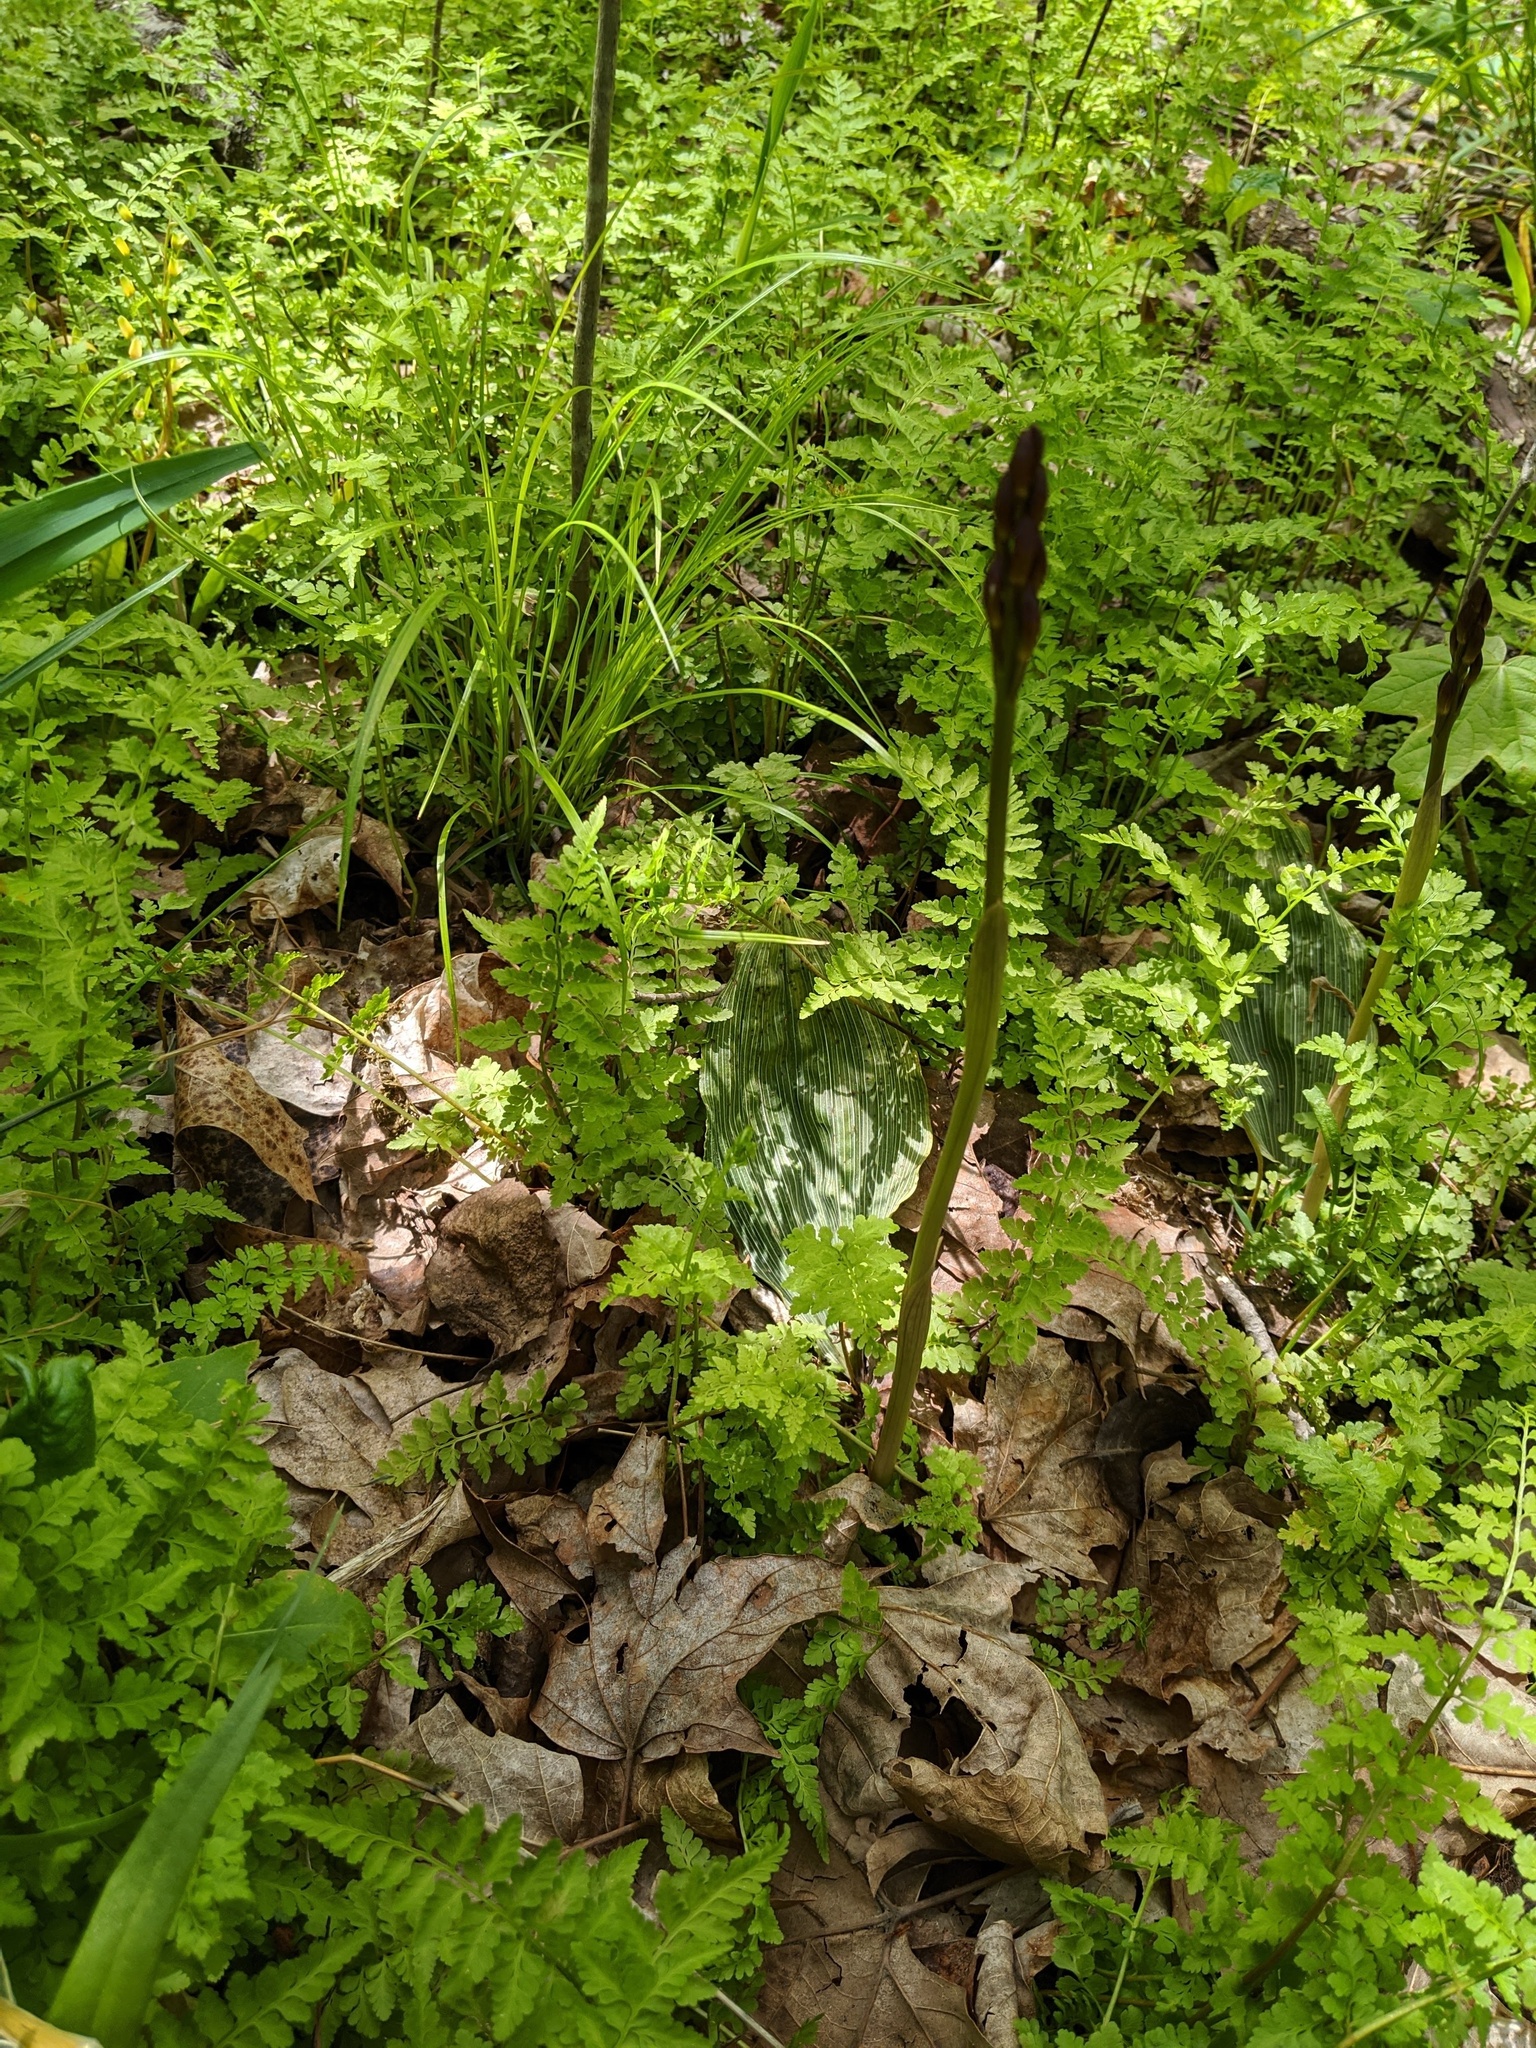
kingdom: Plantae
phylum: Tracheophyta
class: Liliopsida
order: Asparagales
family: Orchidaceae
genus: Aplectrum
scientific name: Aplectrum hyemale
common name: Adam-and-eve
